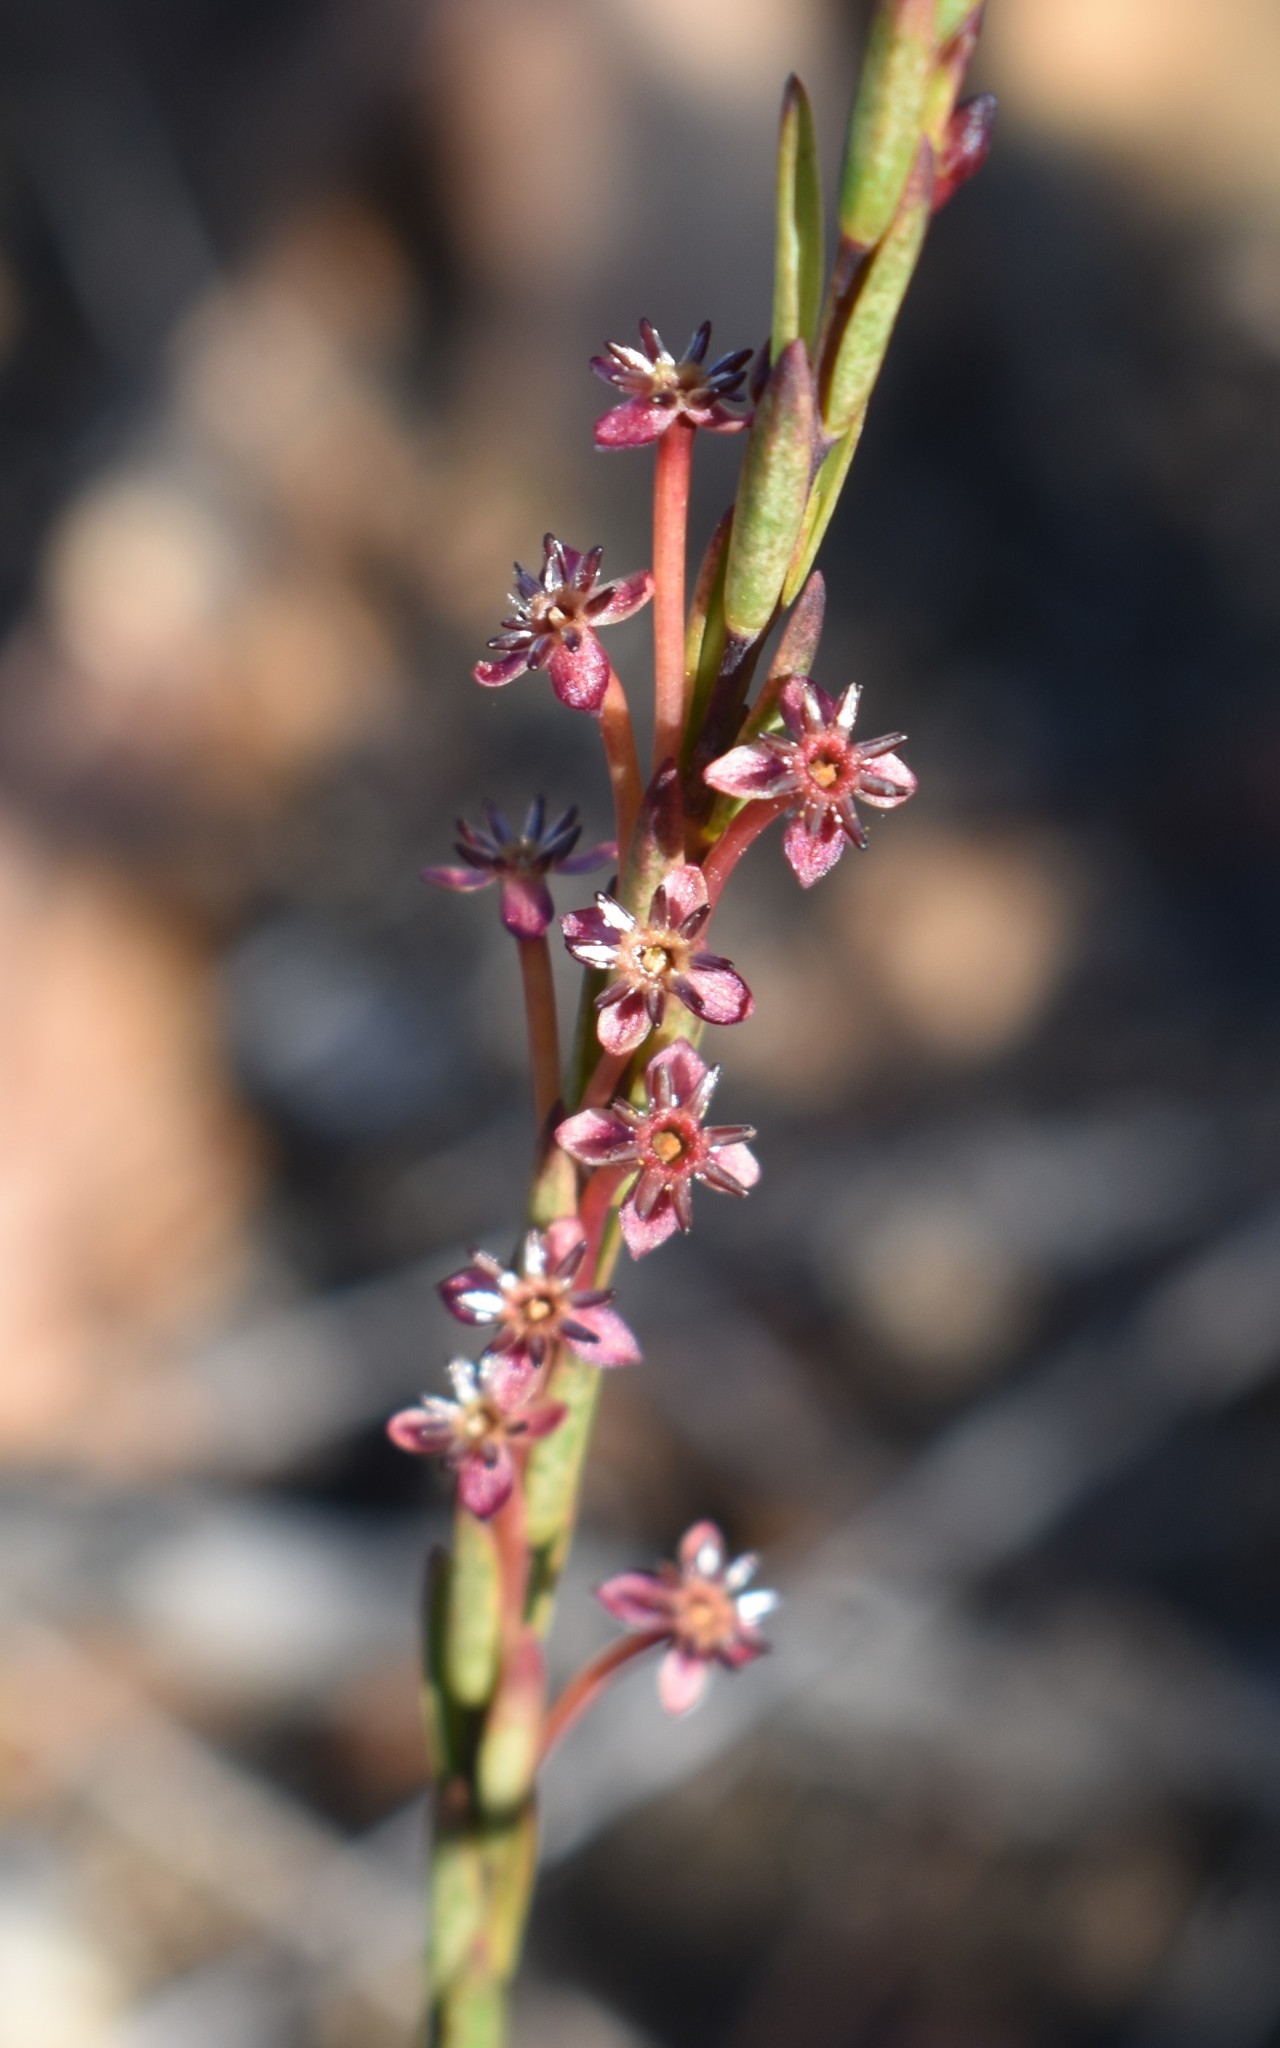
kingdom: Plantae
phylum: Tracheophyta
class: Magnoliopsida
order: Malvales
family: Thymelaeaceae
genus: Struthiola
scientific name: Struthiola macowanii
